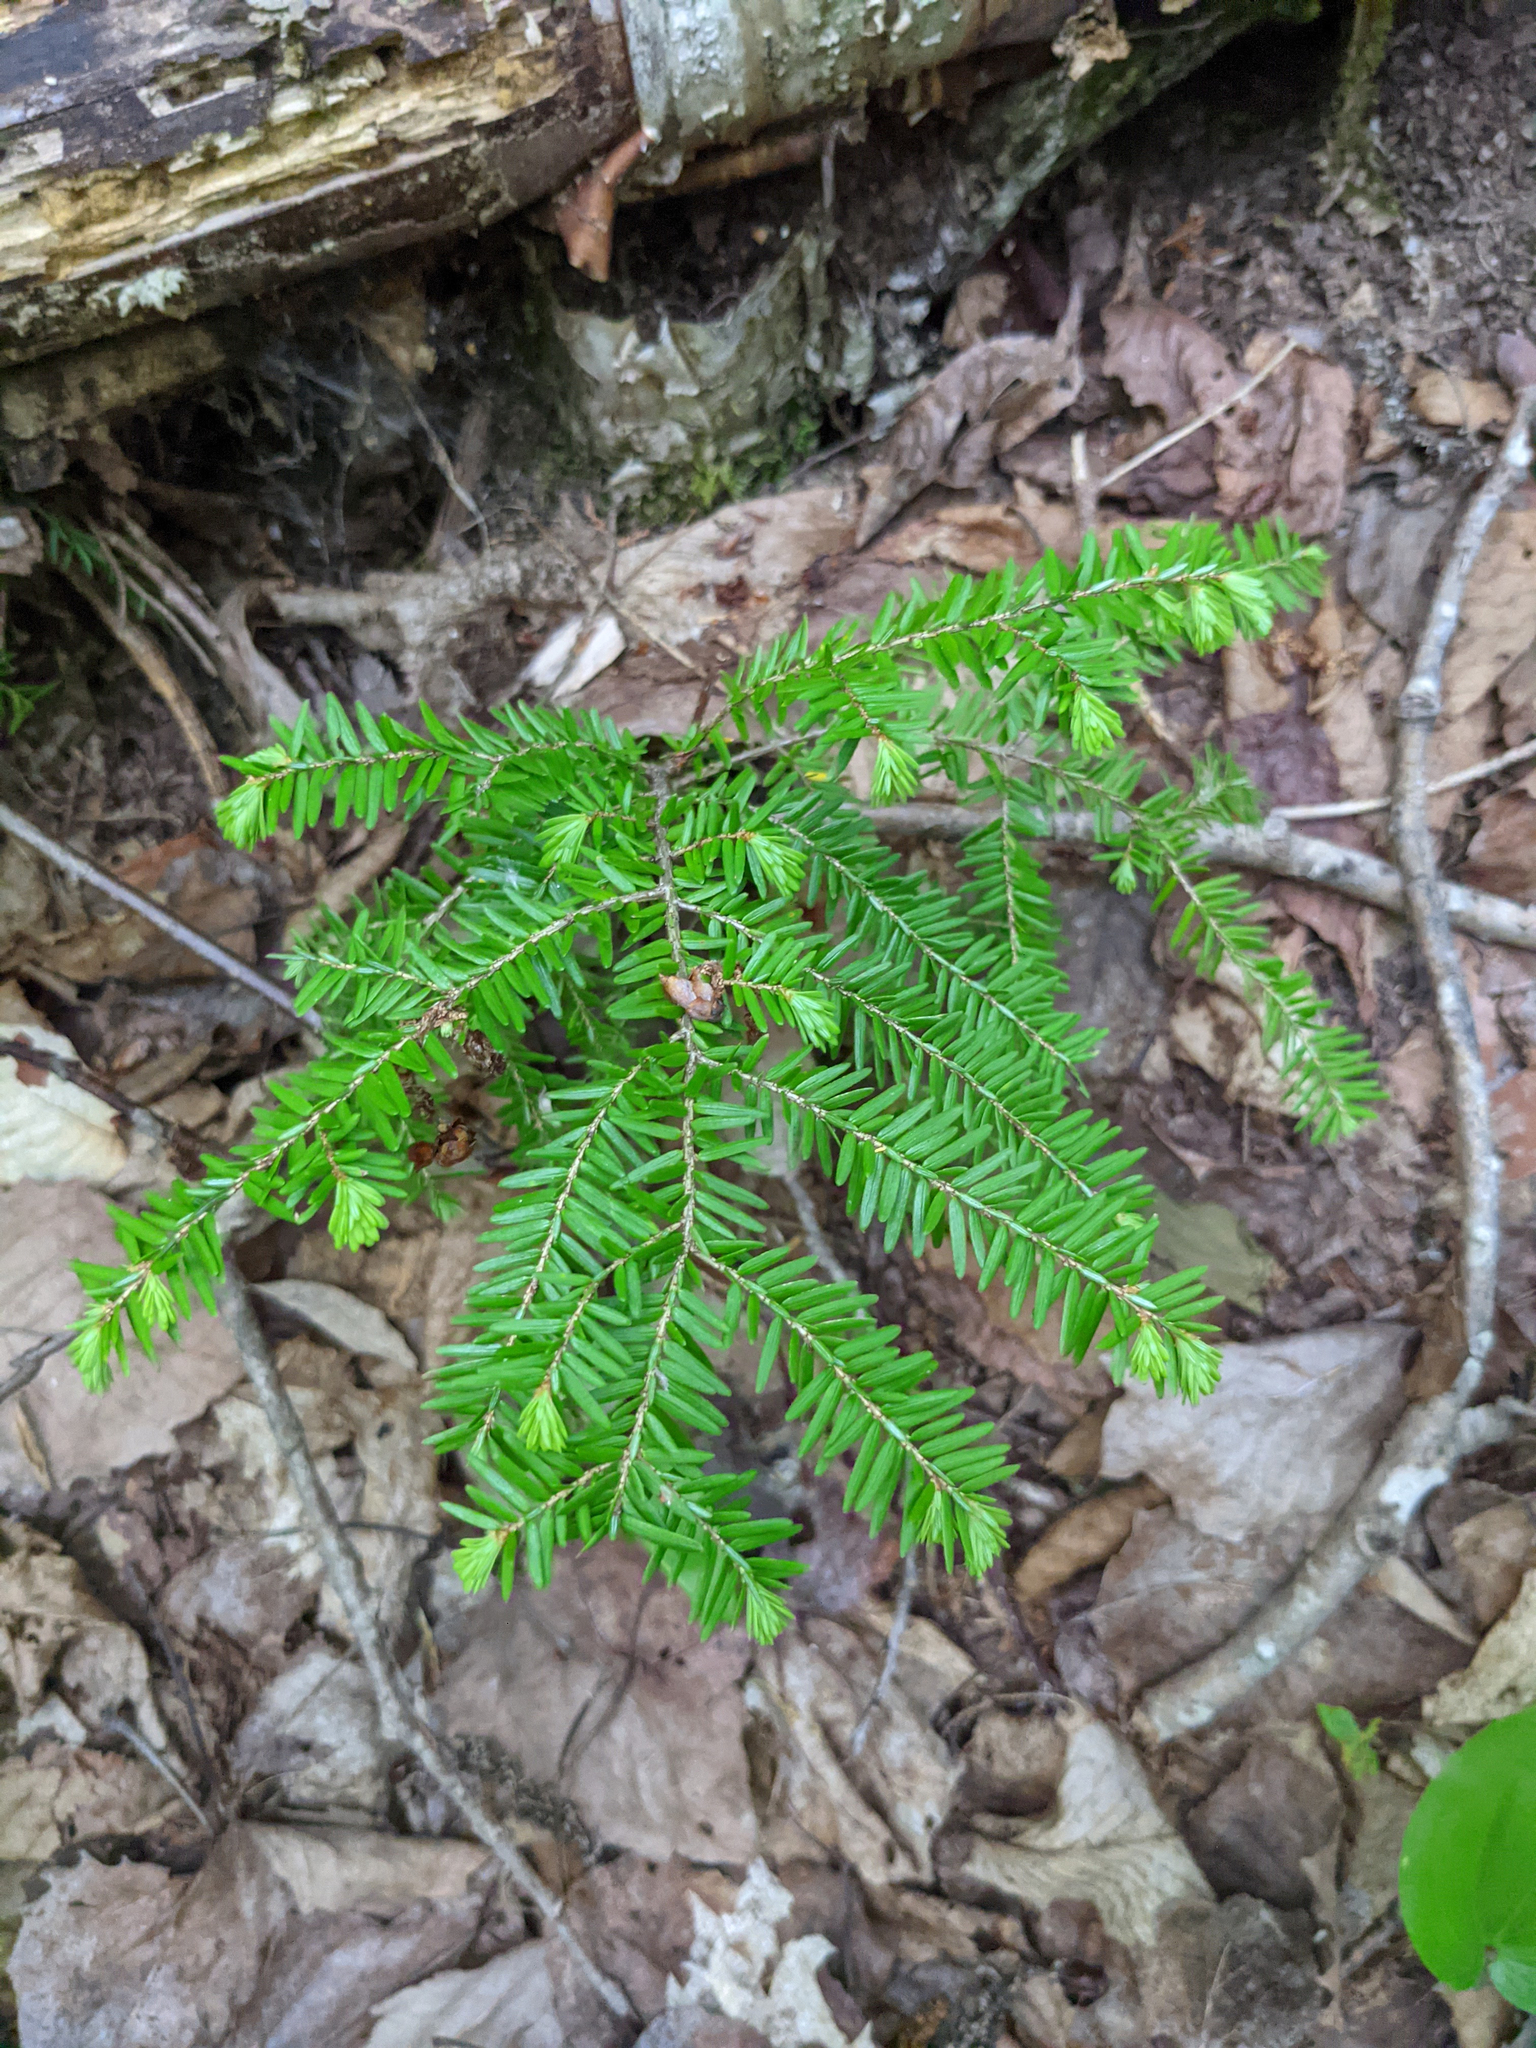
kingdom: Plantae
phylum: Tracheophyta
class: Pinopsida
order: Pinales
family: Pinaceae
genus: Tsuga
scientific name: Tsuga canadensis
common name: Eastern hemlock
